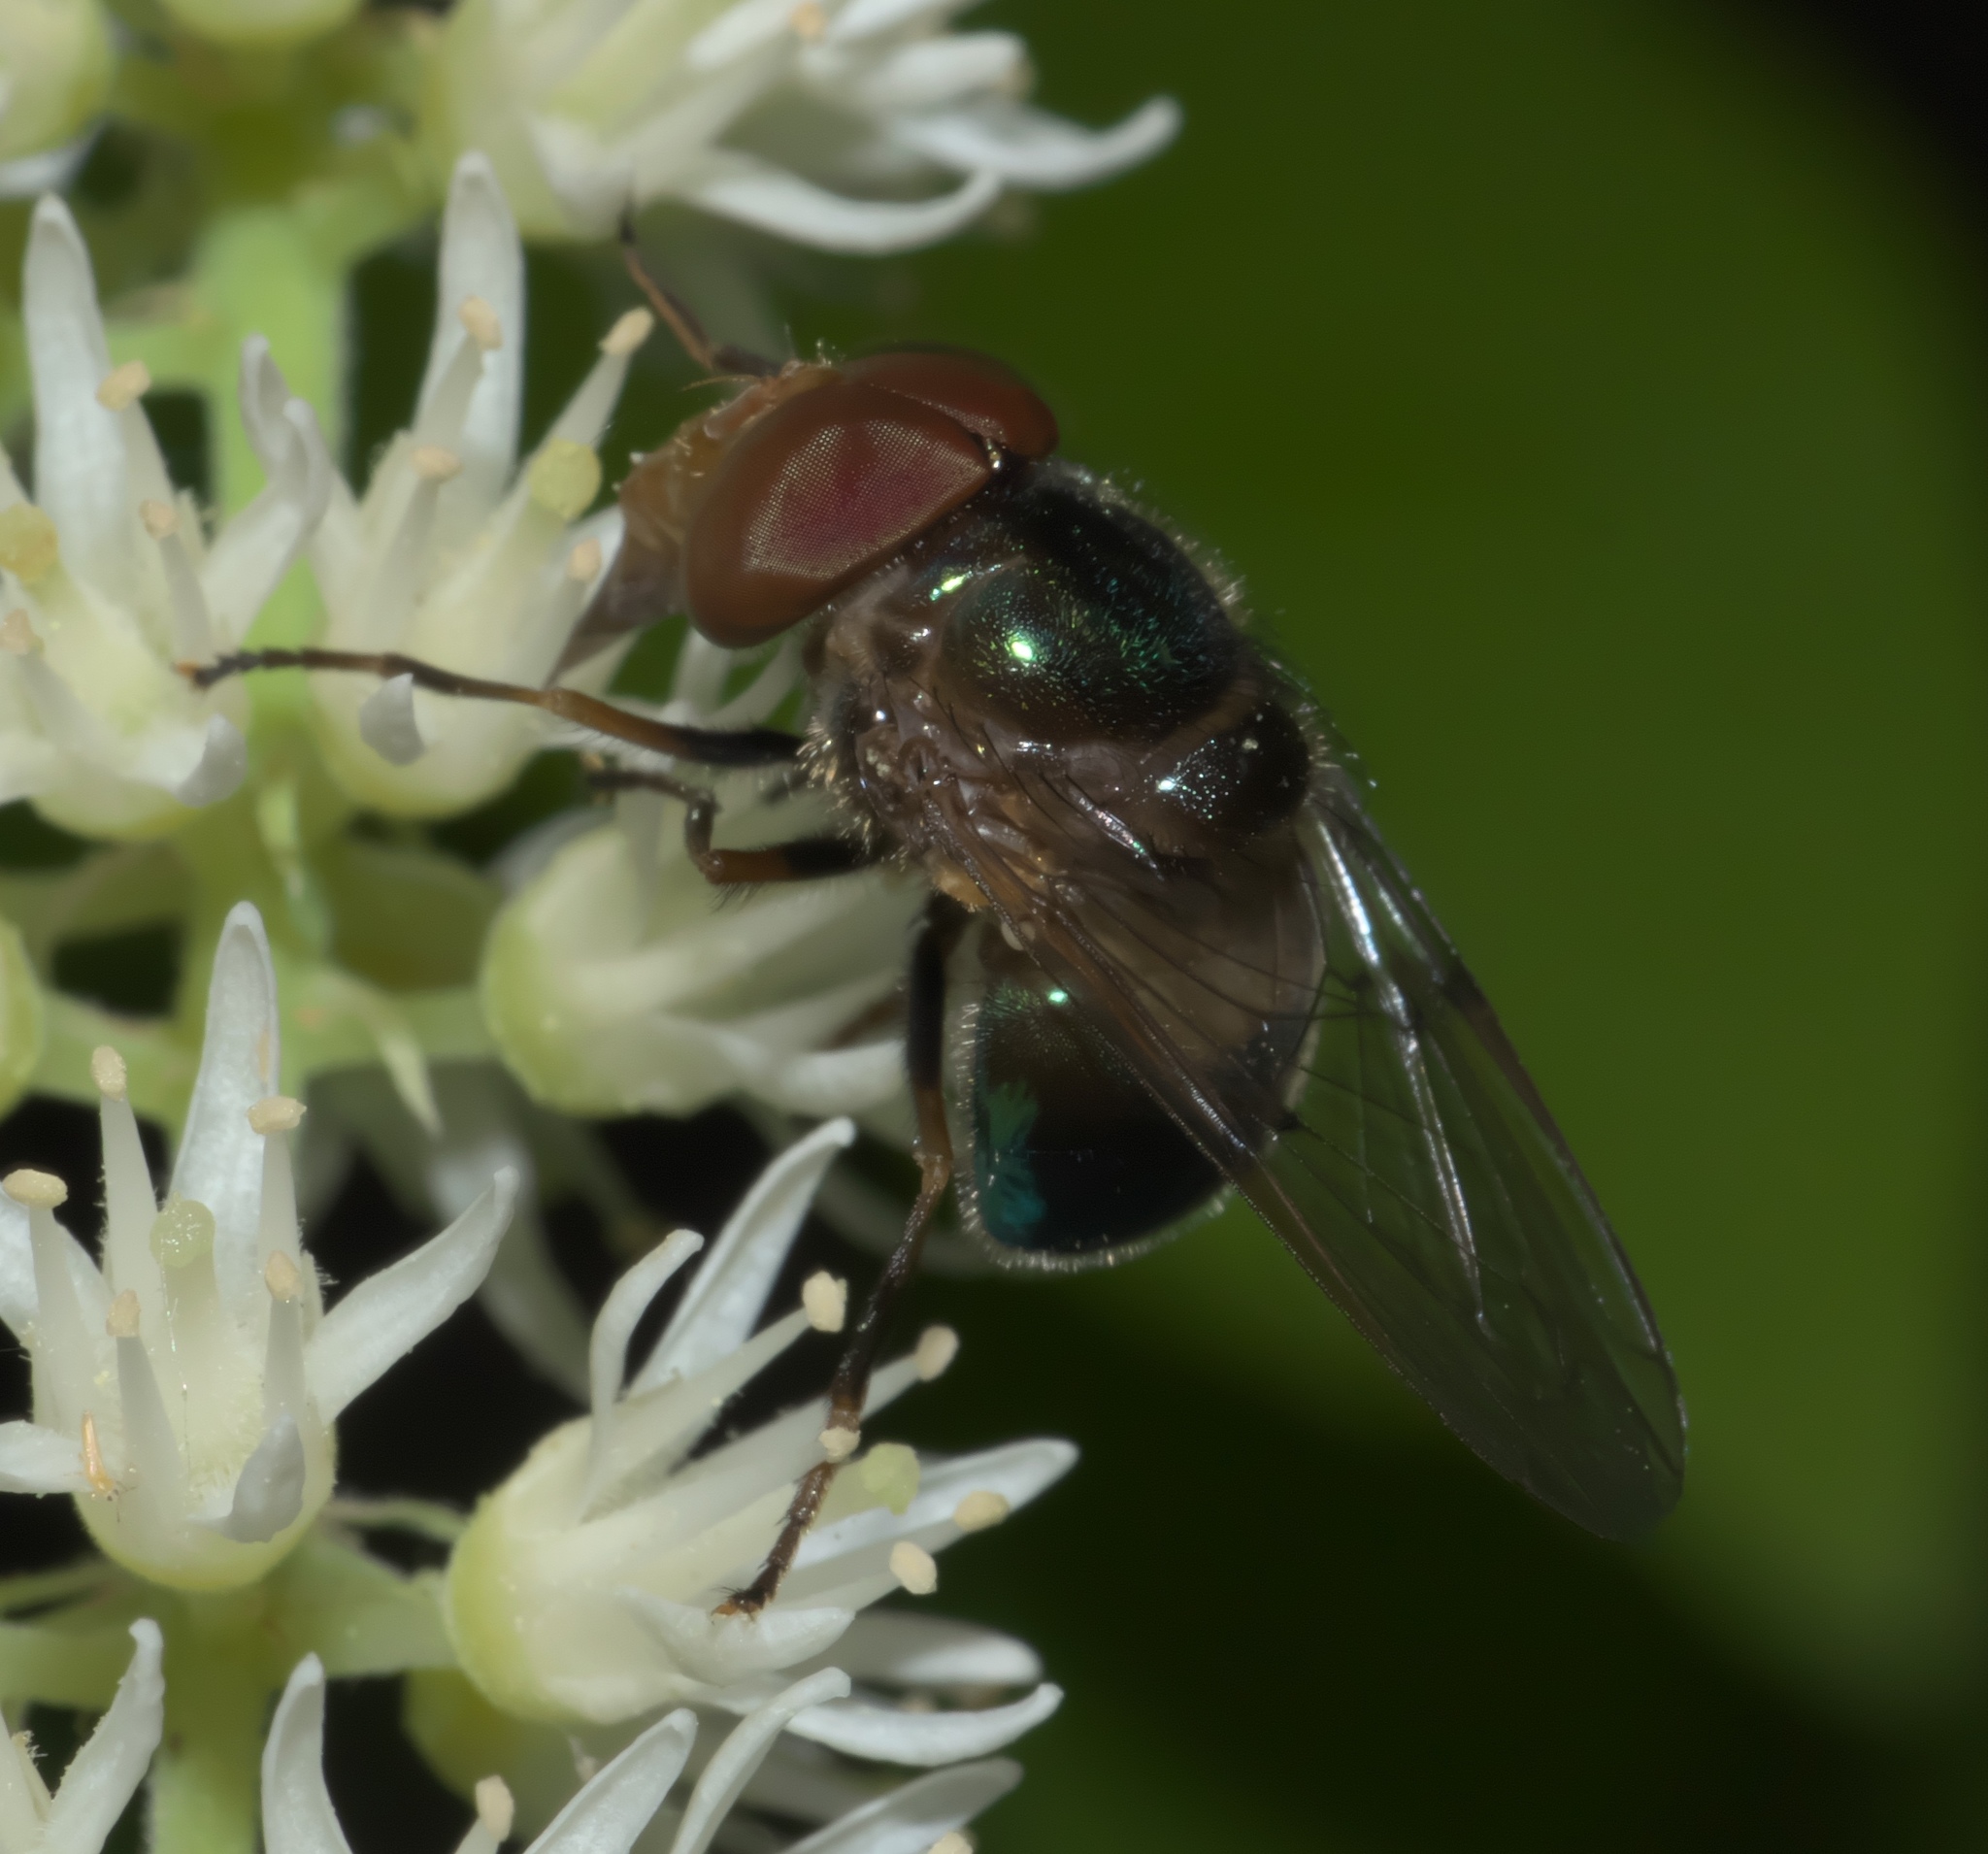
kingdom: Animalia
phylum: Arthropoda
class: Insecta
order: Diptera
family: Syrphidae
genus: Copestylum
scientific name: Copestylum vesicularium
